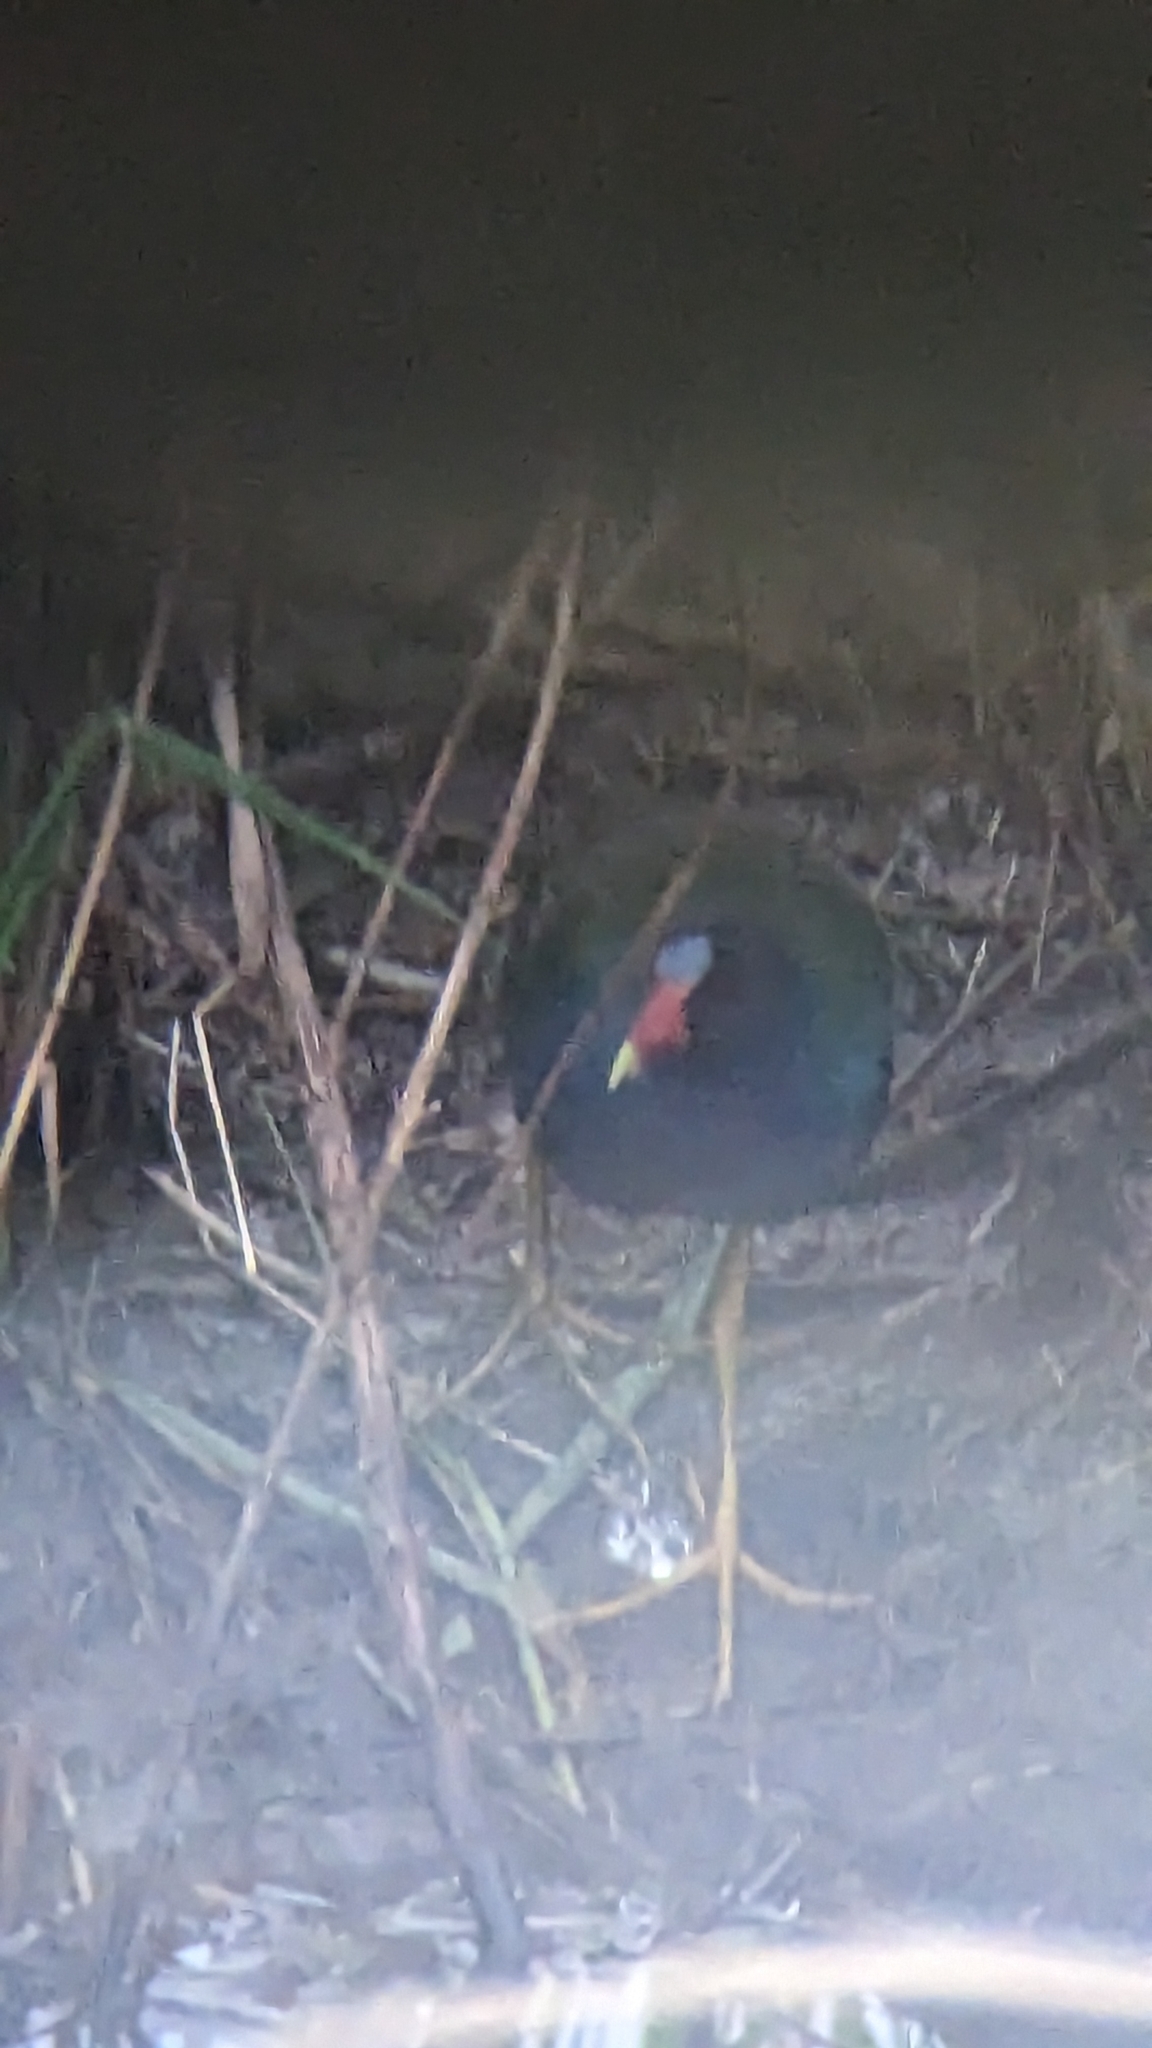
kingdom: Animalia
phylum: Chordata
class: Aves
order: Gruiformes
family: Rallidae
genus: Porphyrio
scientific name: Porphyrio martinica
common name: Purple gallinule
